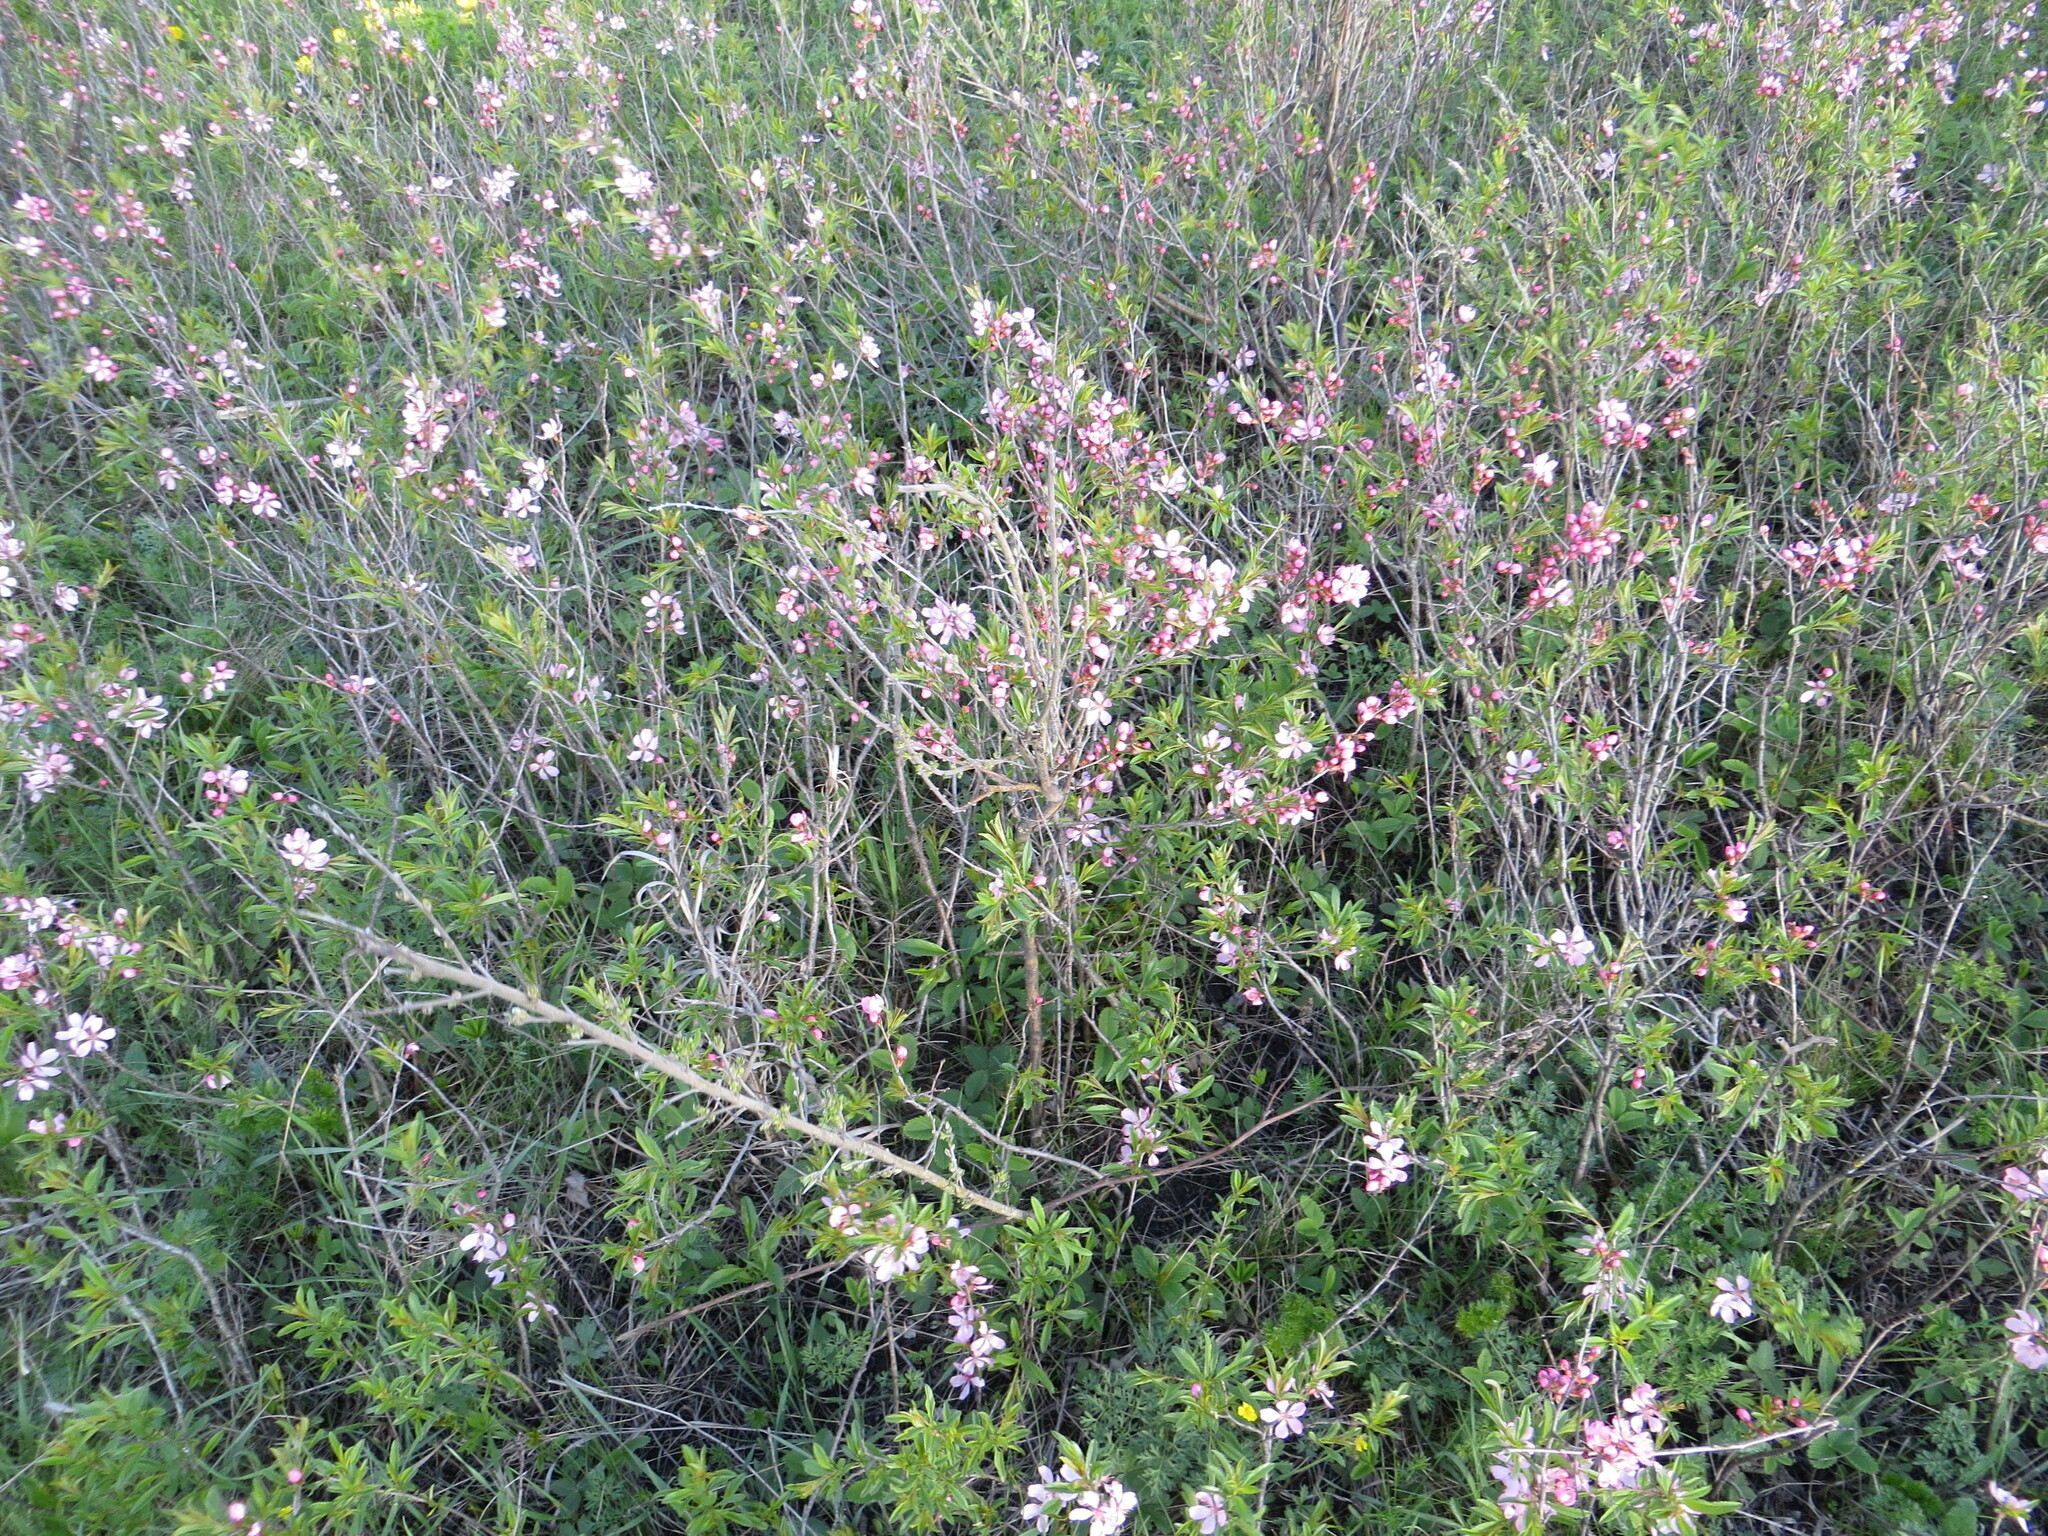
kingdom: Plantae
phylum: Tracheophyta
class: Magnoliopsida
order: Rosales
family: Rosaceae
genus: Prunus
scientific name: Prunus tenella
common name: Dwarf russian almond
